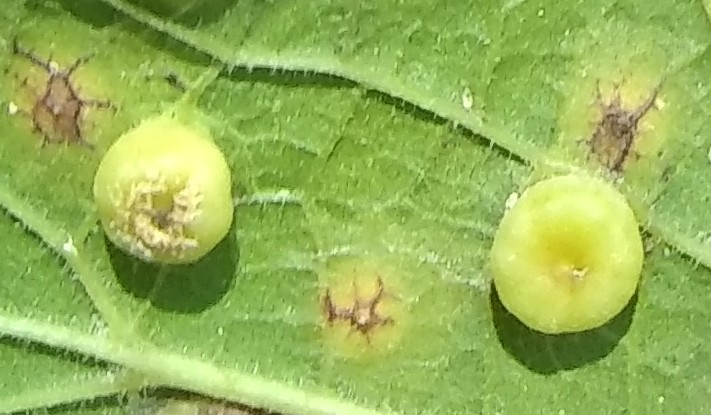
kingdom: Animalia
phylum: Arthropoda
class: Insecta
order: Hemiptera
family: Aphalaridae
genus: Pachypsylla
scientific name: Pachypsylla celtidismamma
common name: Hackberry nipplegall psyllid
